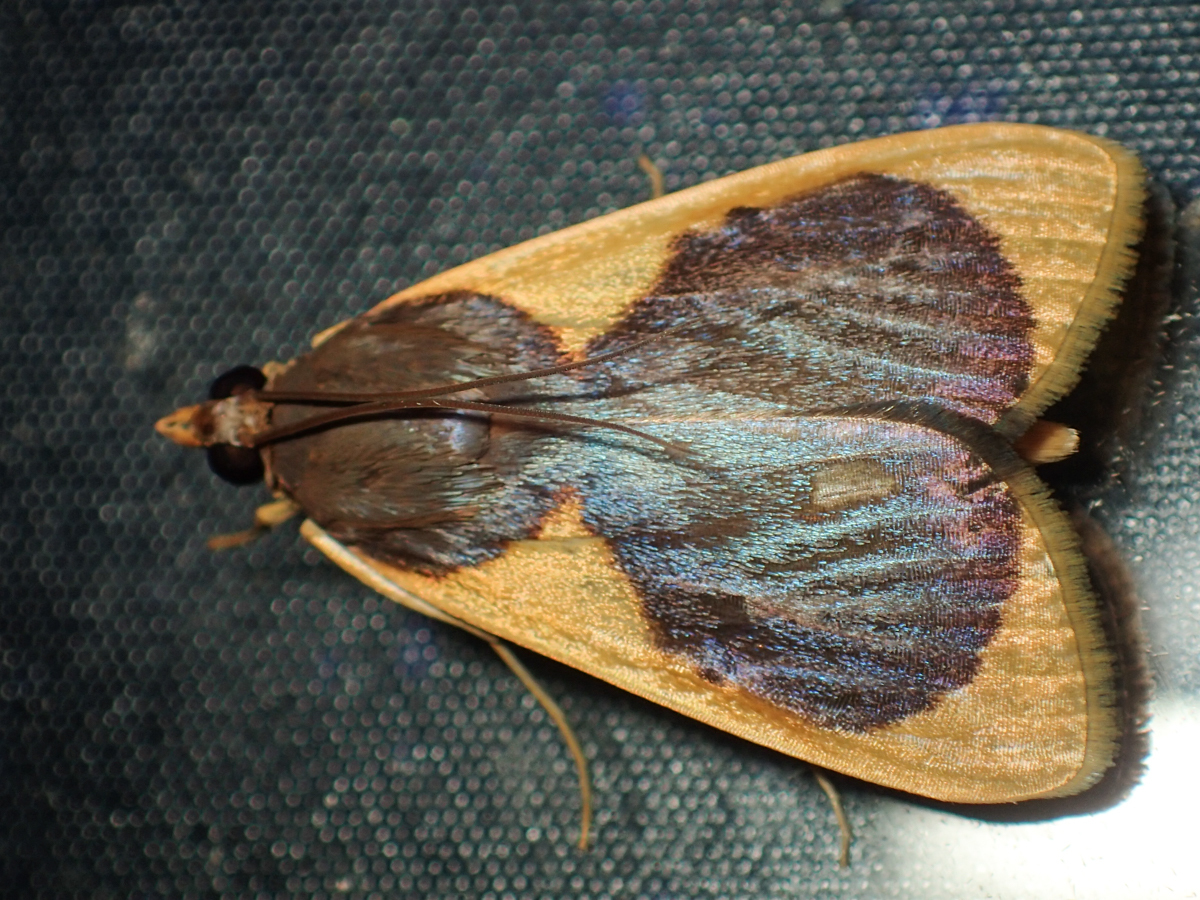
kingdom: Animalia
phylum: Arthropoda
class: Insecta
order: Lepidoptera
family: Crambidae
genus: Prooedema
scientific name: Prooedema inscisalis
